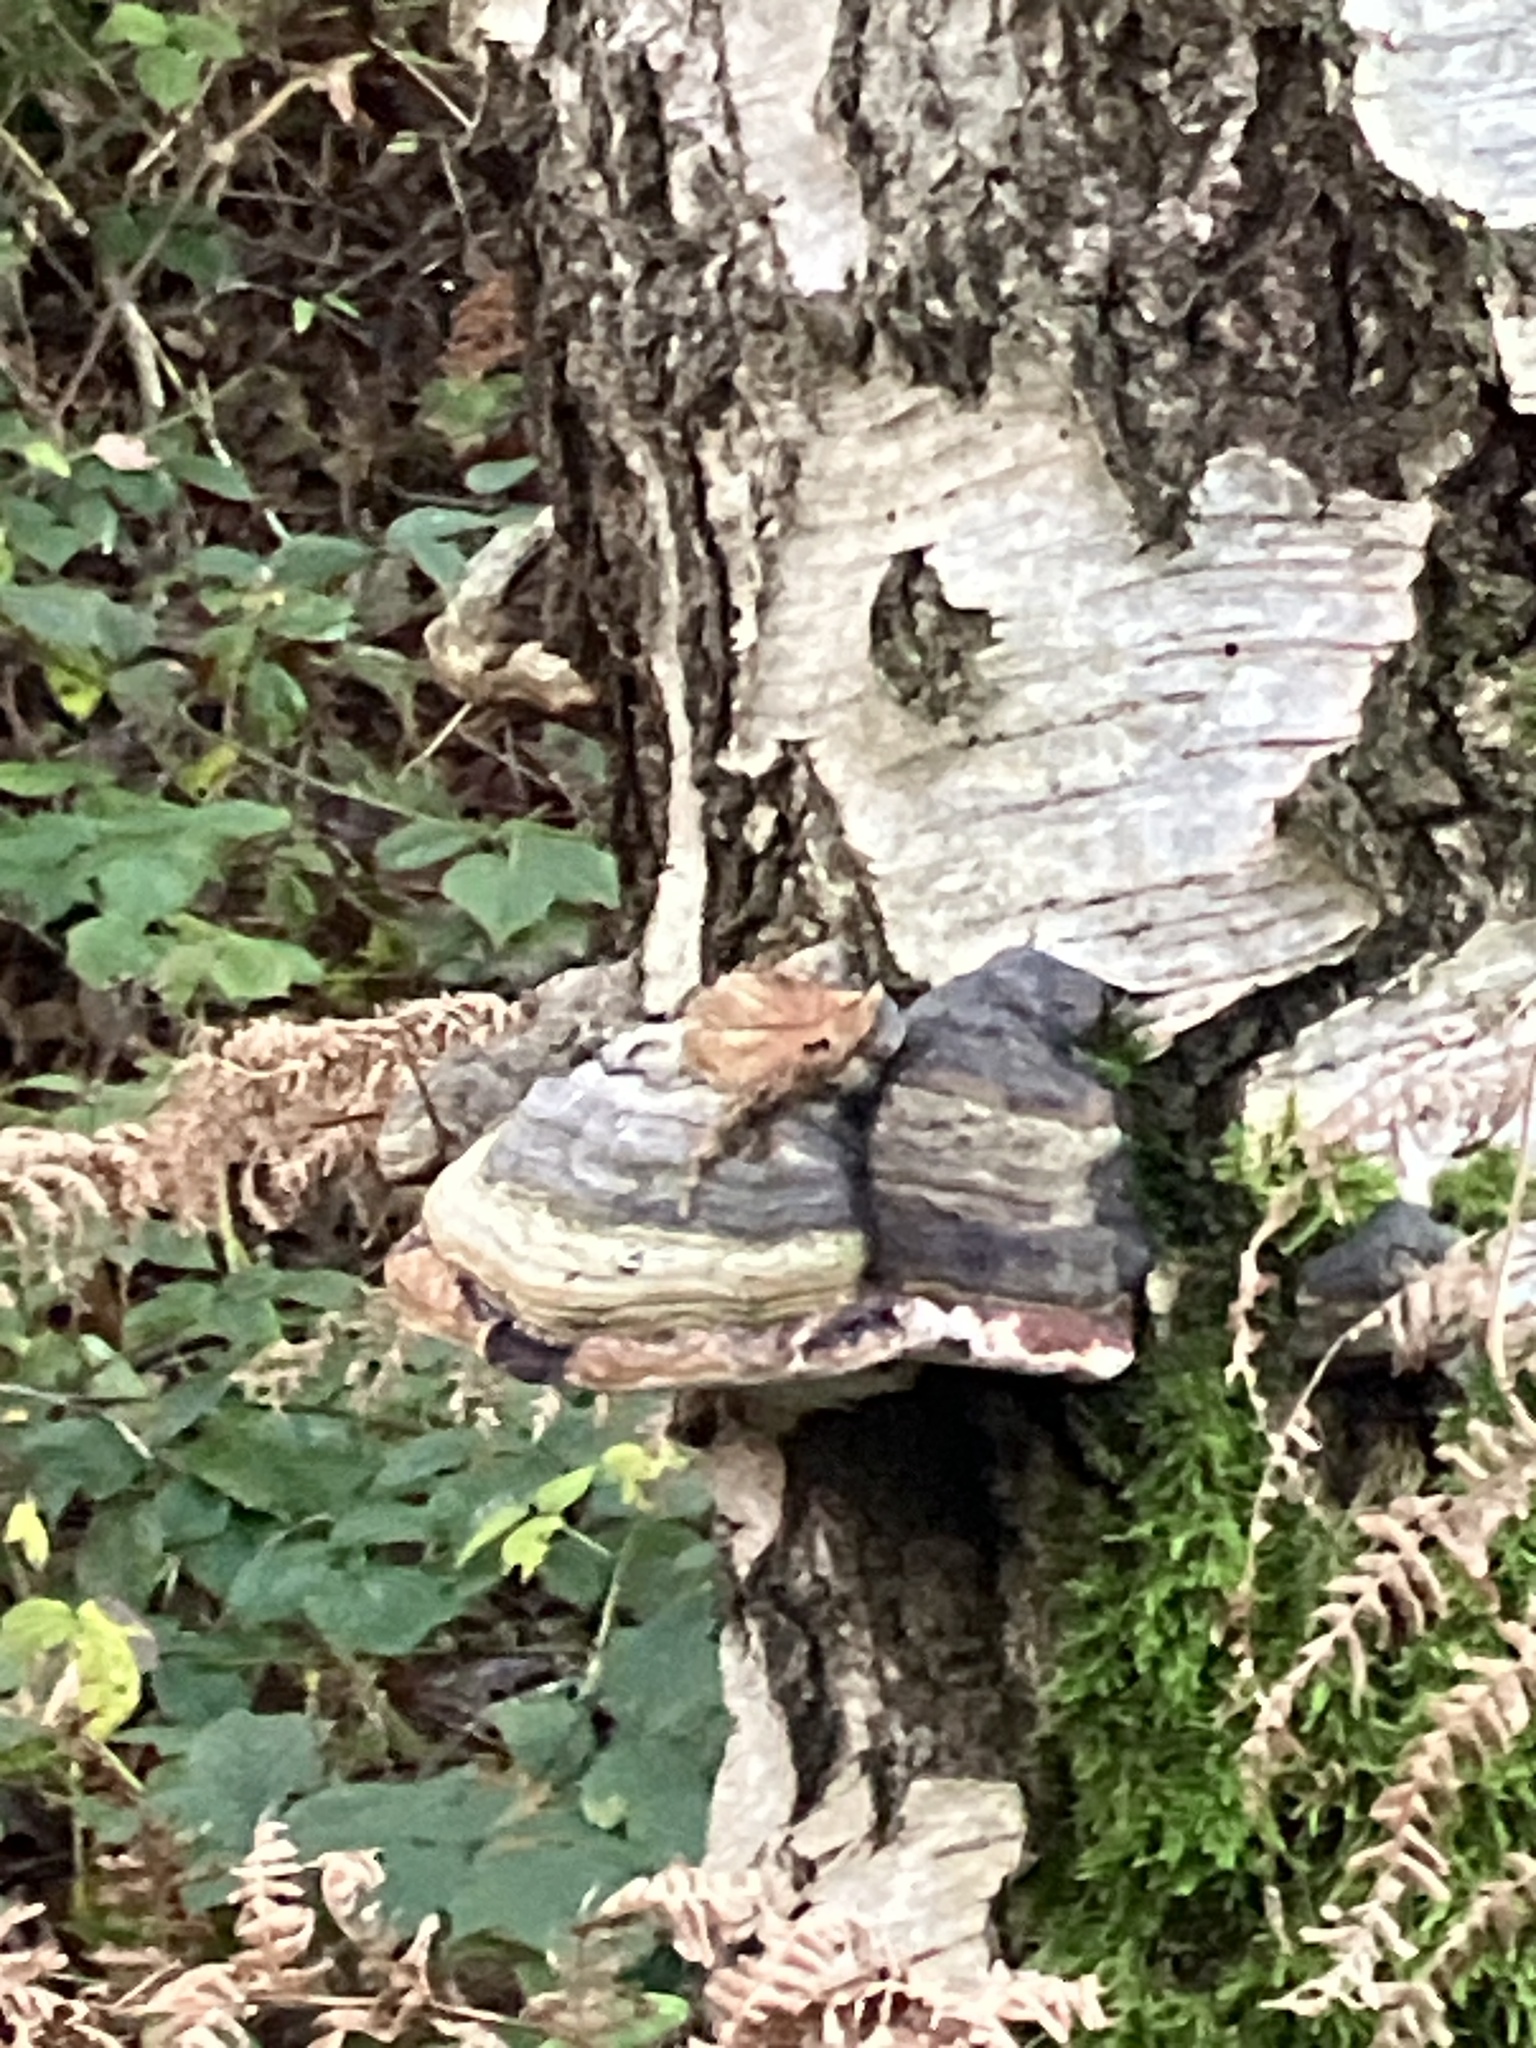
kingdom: Fungi
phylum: Basidiomycota
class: Agaricomycetes
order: Polyporales
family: Polyporaceae
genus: Fomes
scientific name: Fomes fomentarius
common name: Hoof fungus
